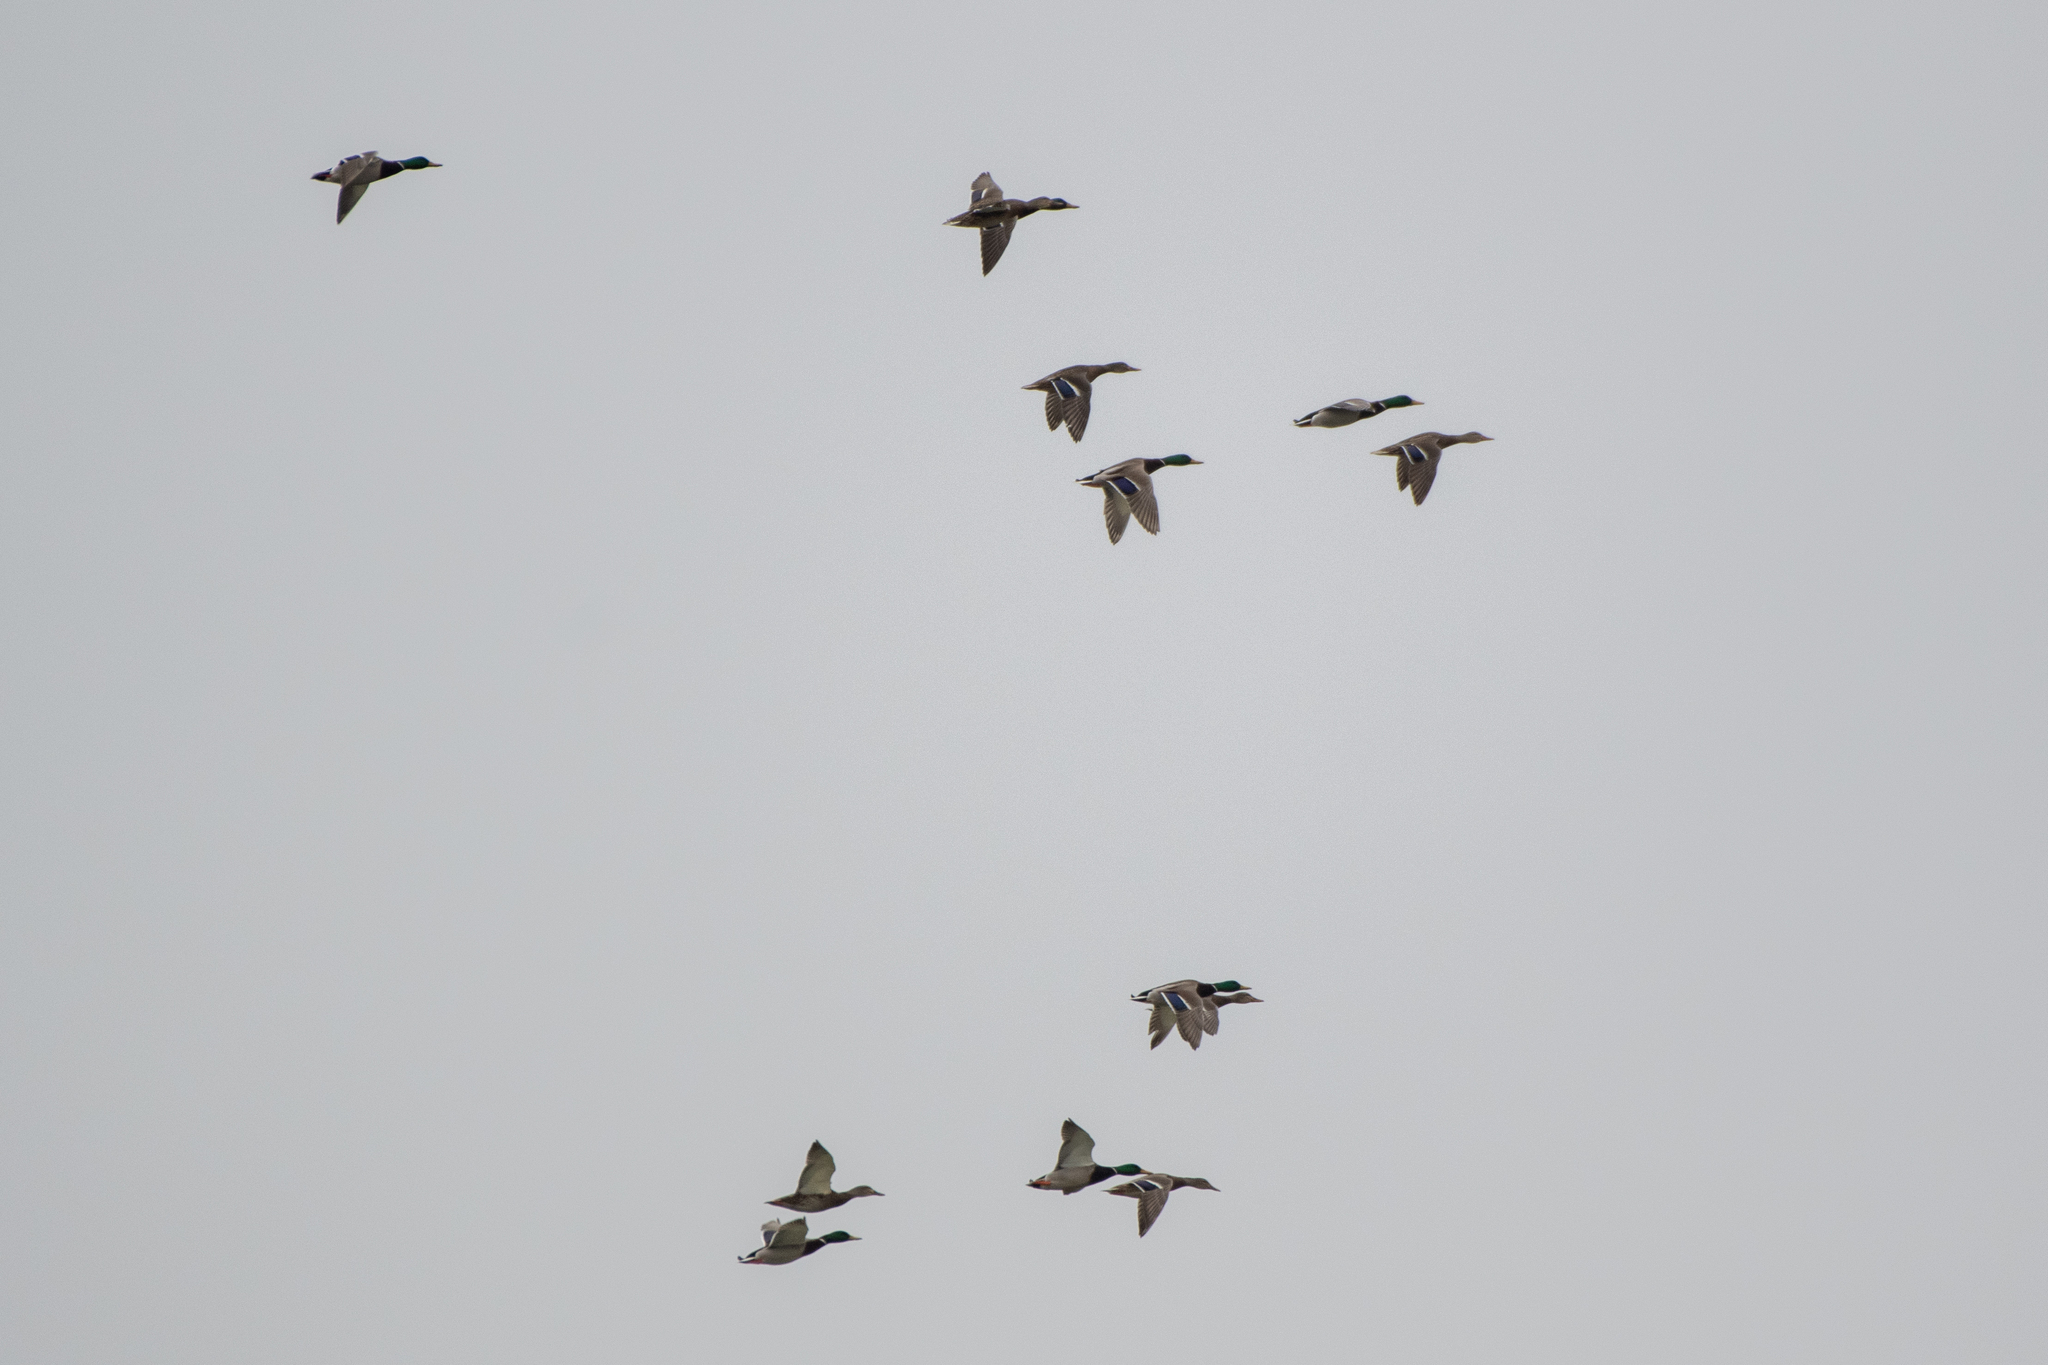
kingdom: Animalia
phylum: Chordata
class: Aves
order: Anseriformes
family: Anatidae
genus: Anas
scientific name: Anas platyrhynchos
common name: Mallard
